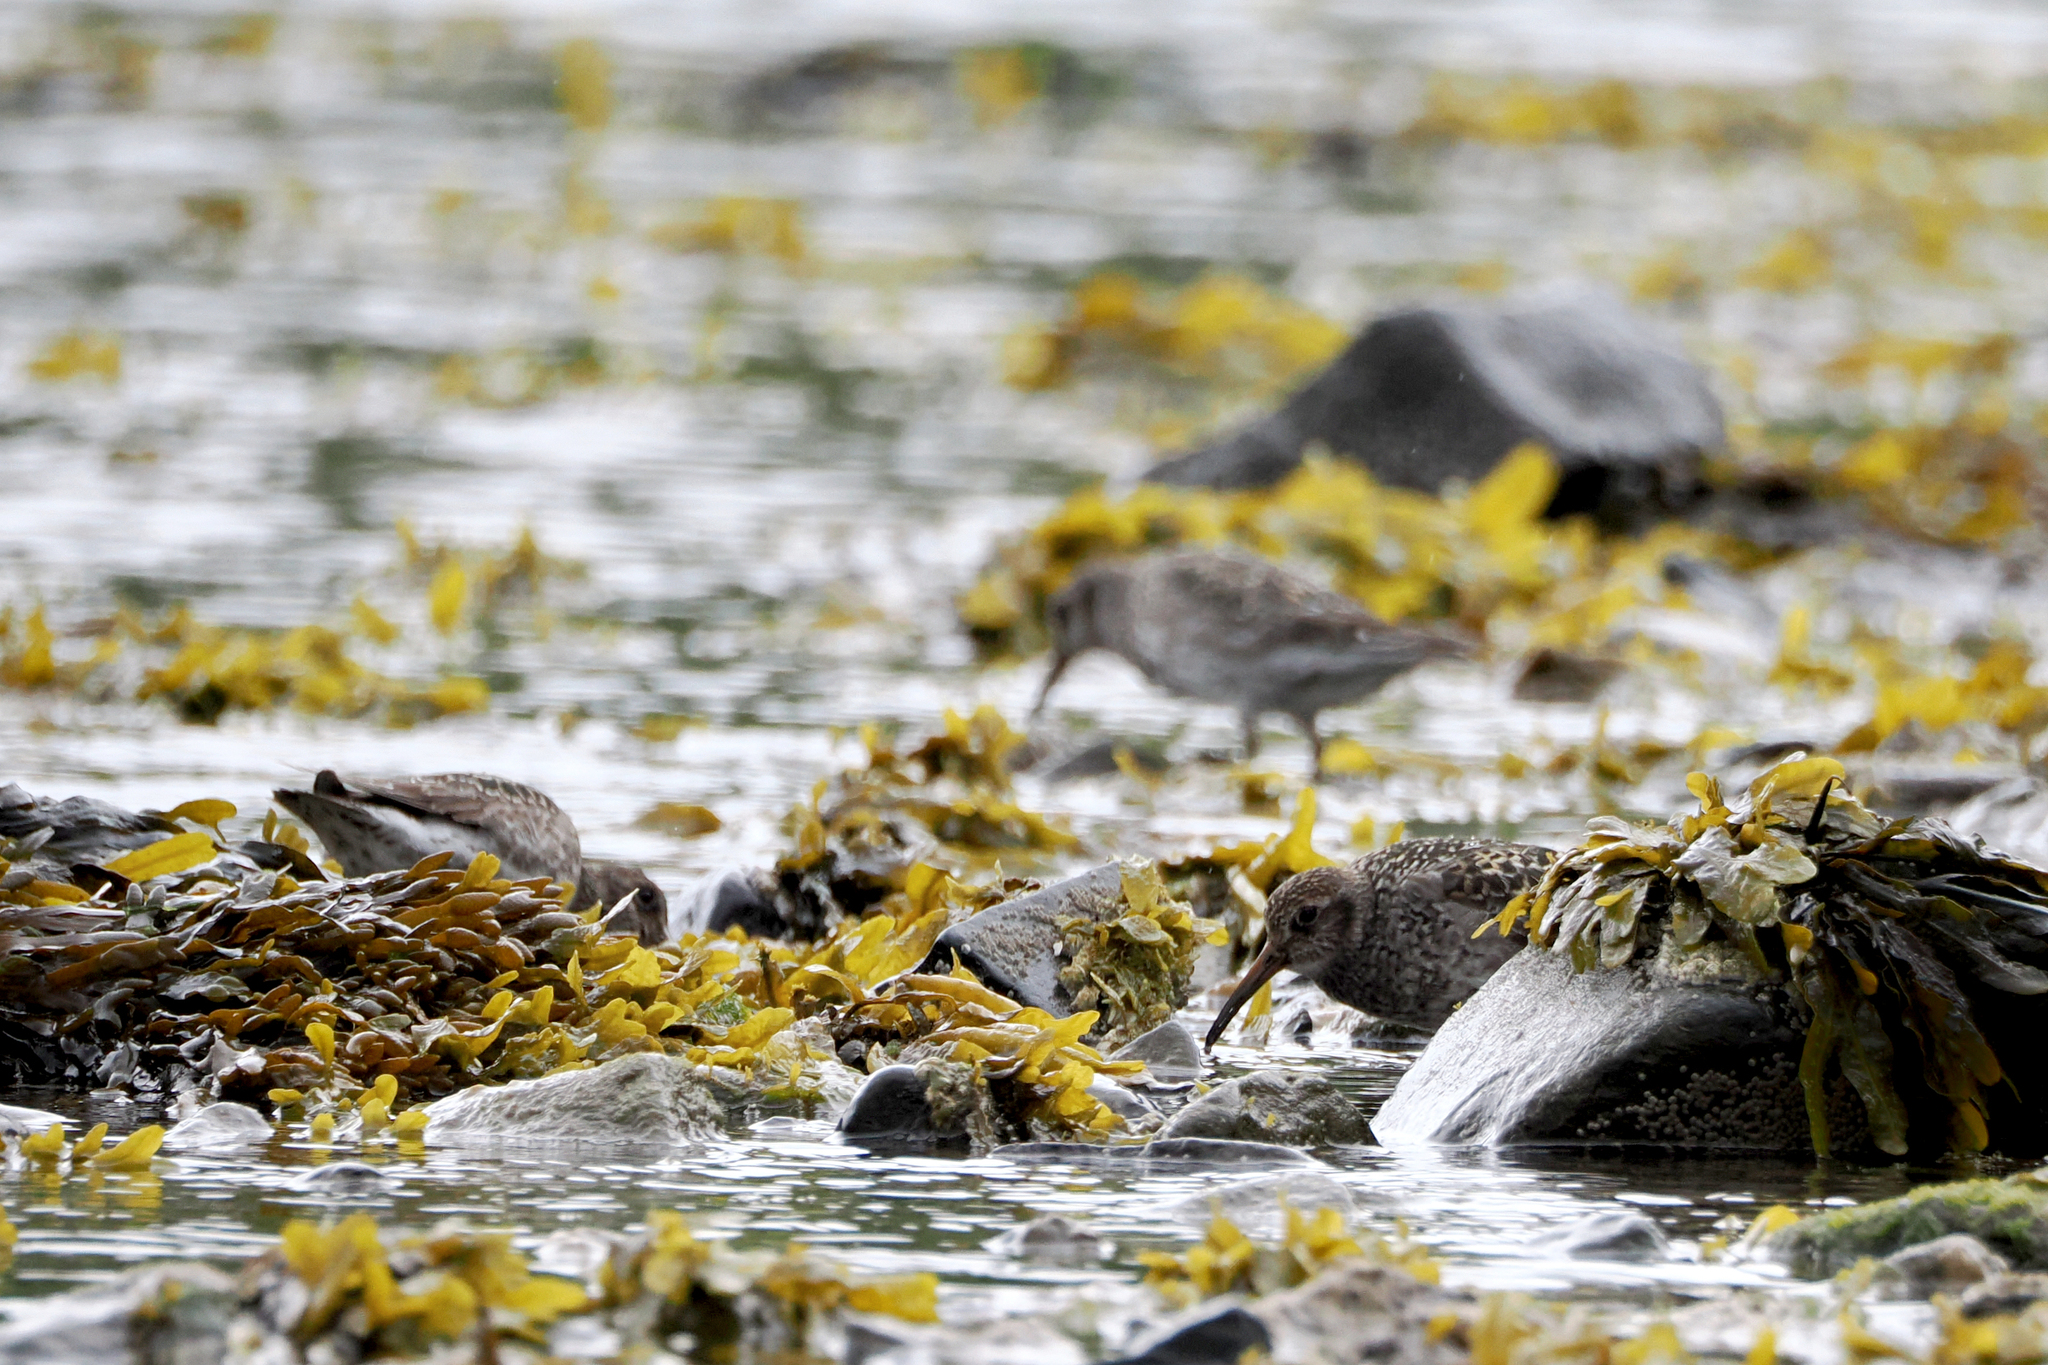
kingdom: Animalia
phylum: Chordata
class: Aves
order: Charadriiformes
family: Scolopacidae
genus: Calidris
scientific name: Calidris maritima
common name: Purple sandpiper
